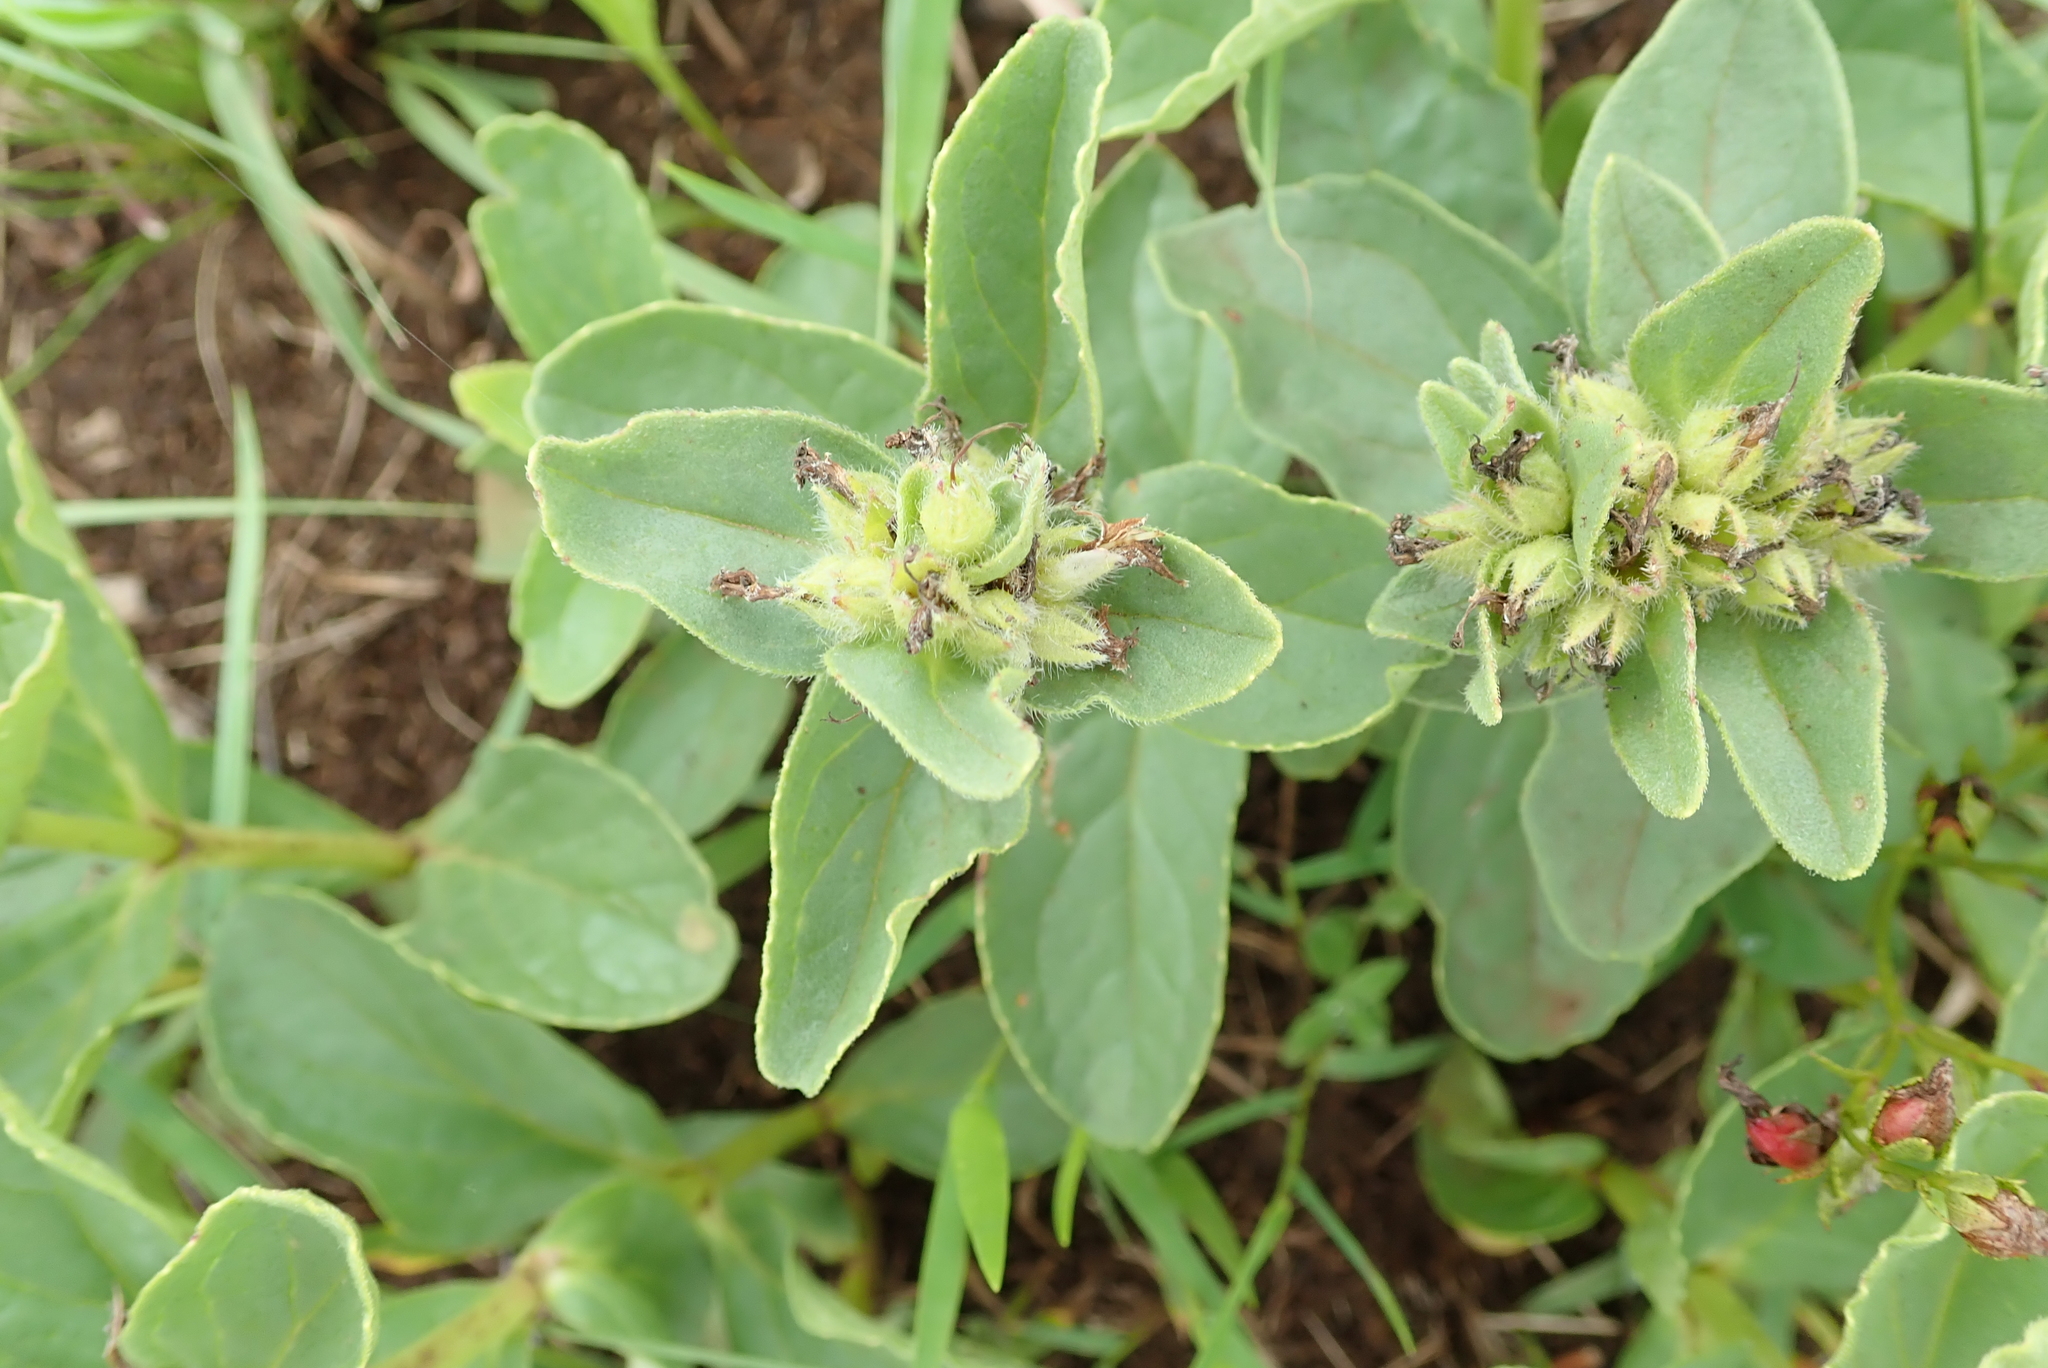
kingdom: Plantae
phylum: Tracheophyta
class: Magnoliopsida
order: Lamiales
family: Lamiaceae
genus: Ajuga
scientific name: Ajuga ophrydis
